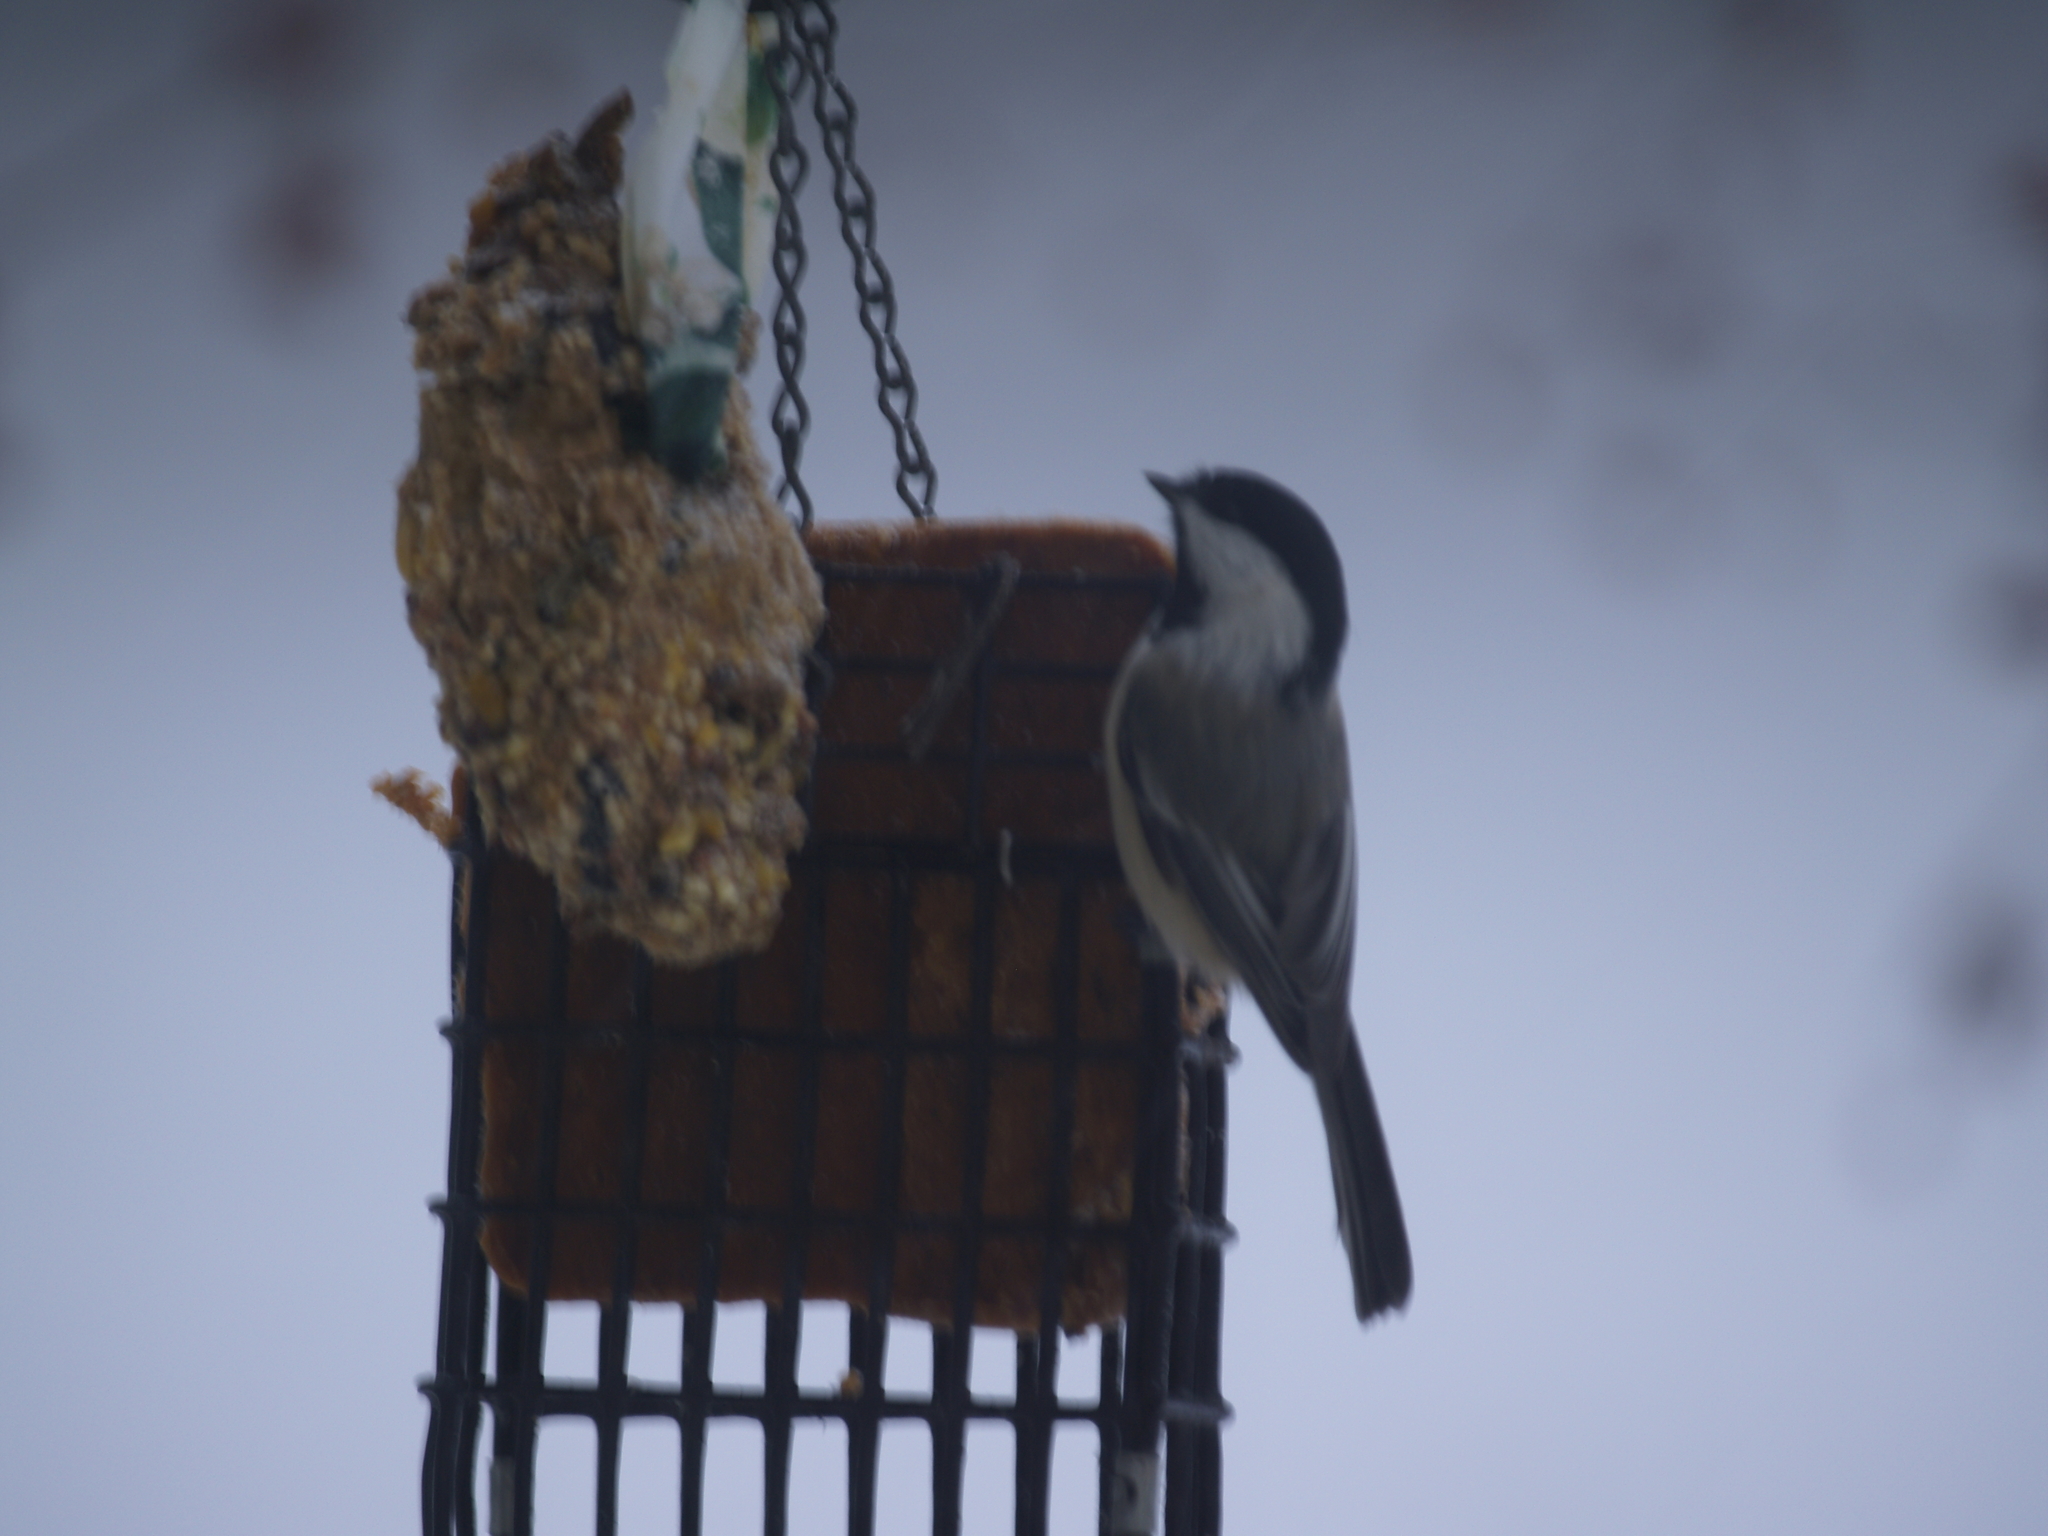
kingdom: Animalia
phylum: Chordata
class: Aves
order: Passeriformes
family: Paridae
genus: Poecile
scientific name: Poecile atricapillus
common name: Black-capped chickadee
